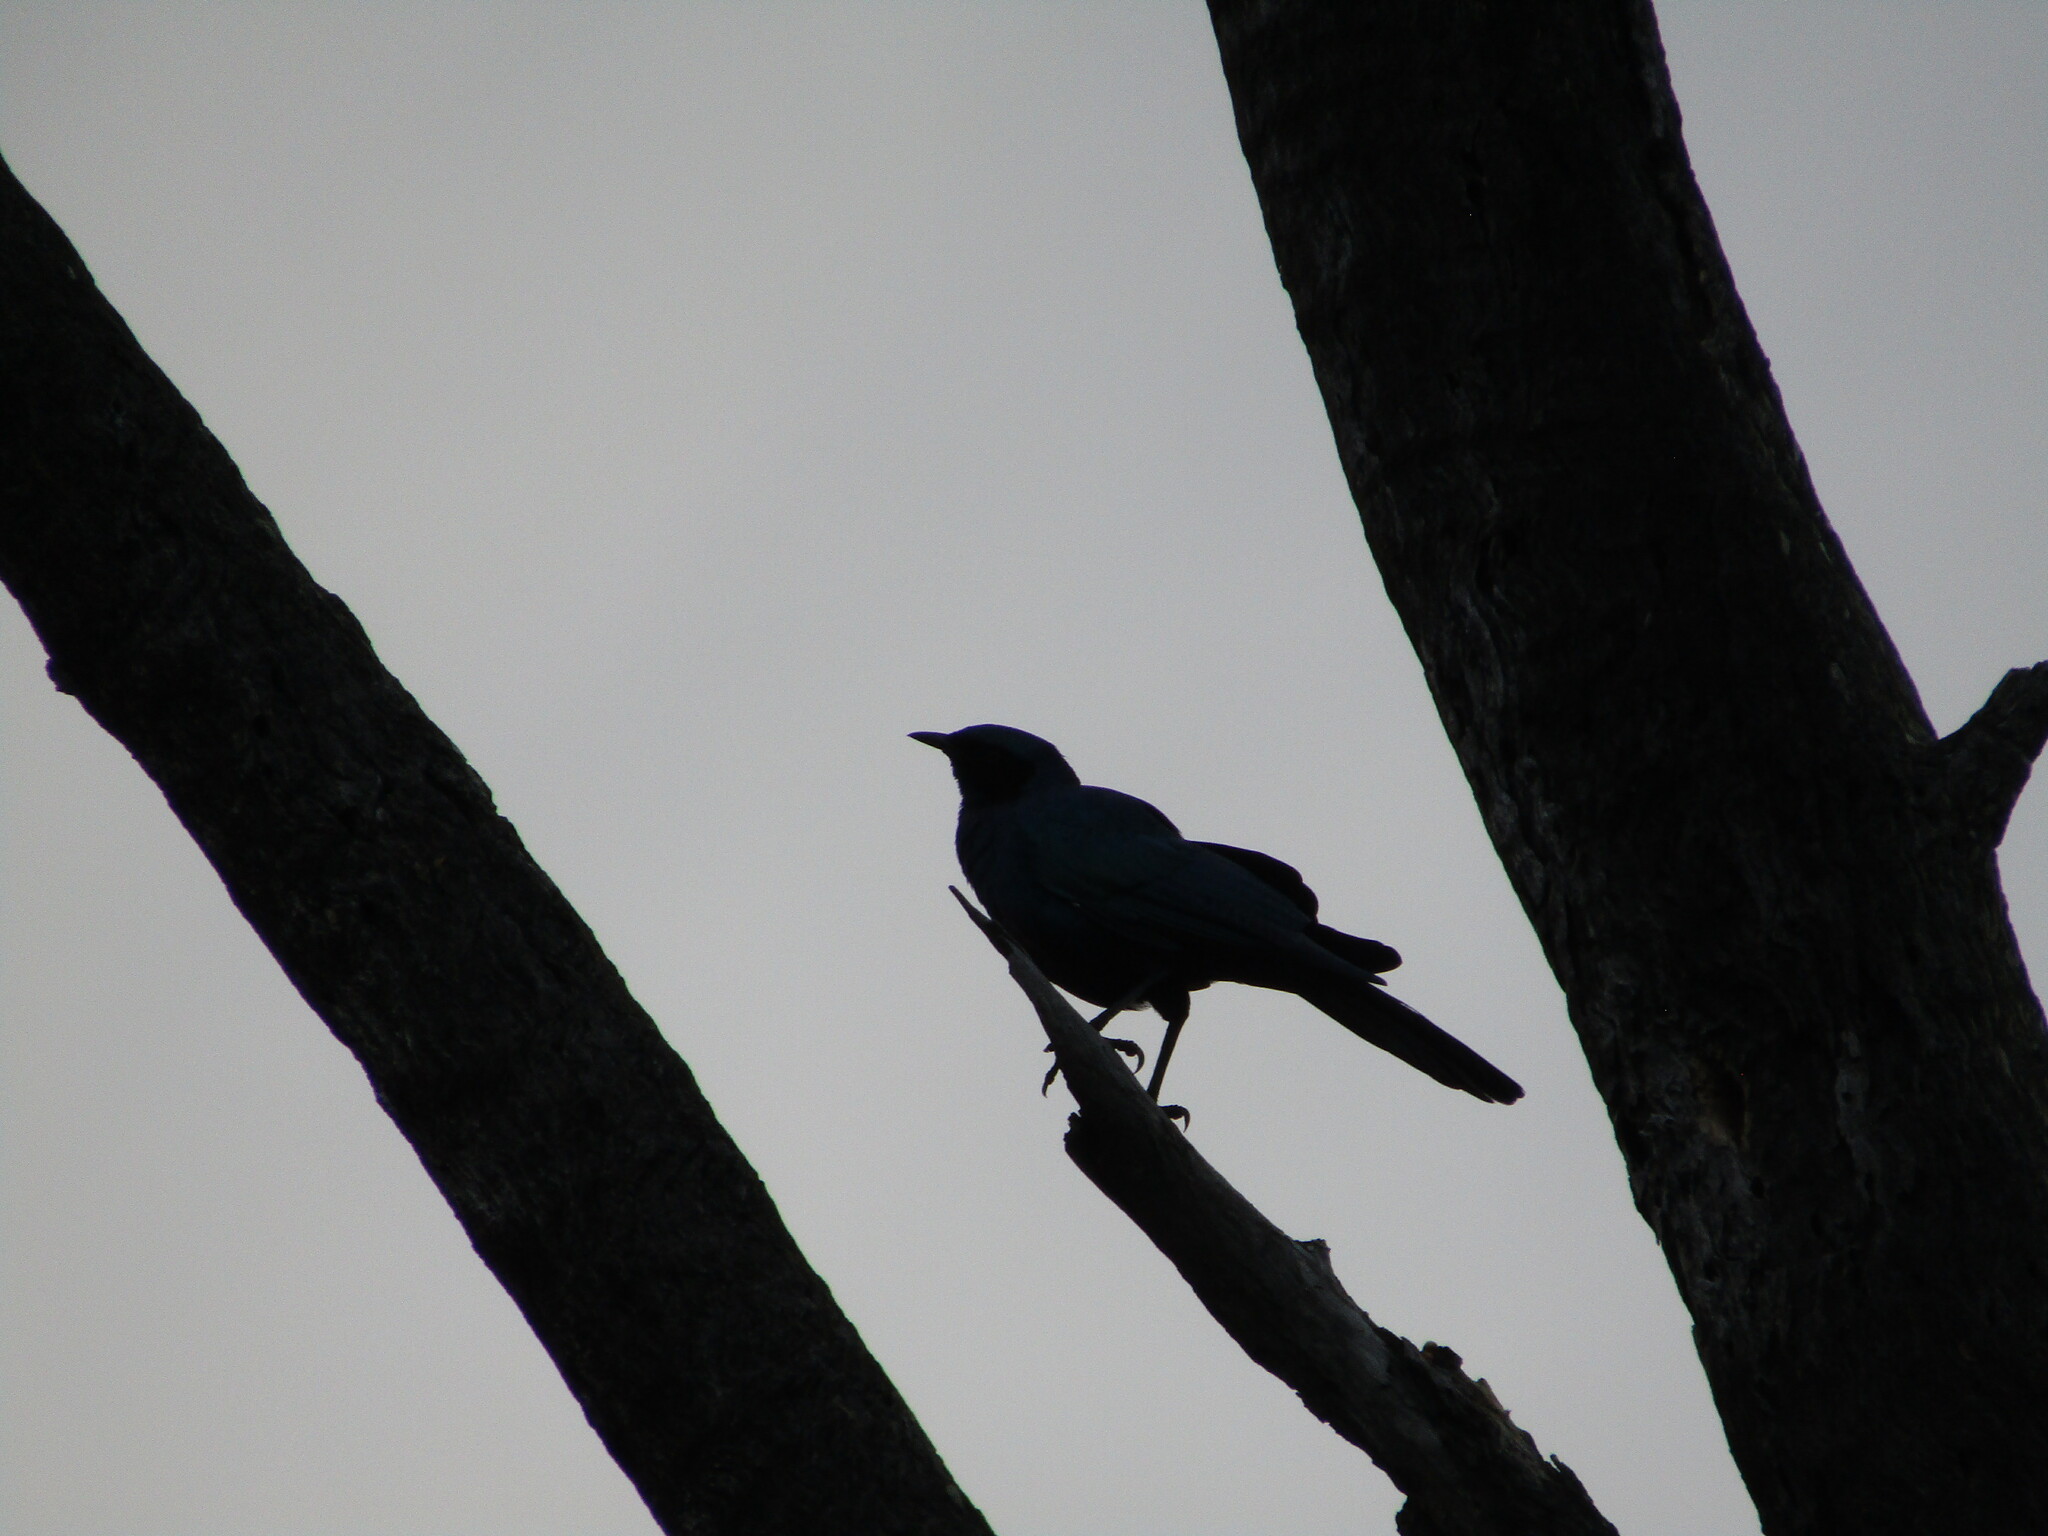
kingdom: Animalia
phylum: Chordata
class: Aves
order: Passeriformes
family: Sturnidae
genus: Lamprotornis
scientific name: Lamprotornis australis
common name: Burchell's starling
